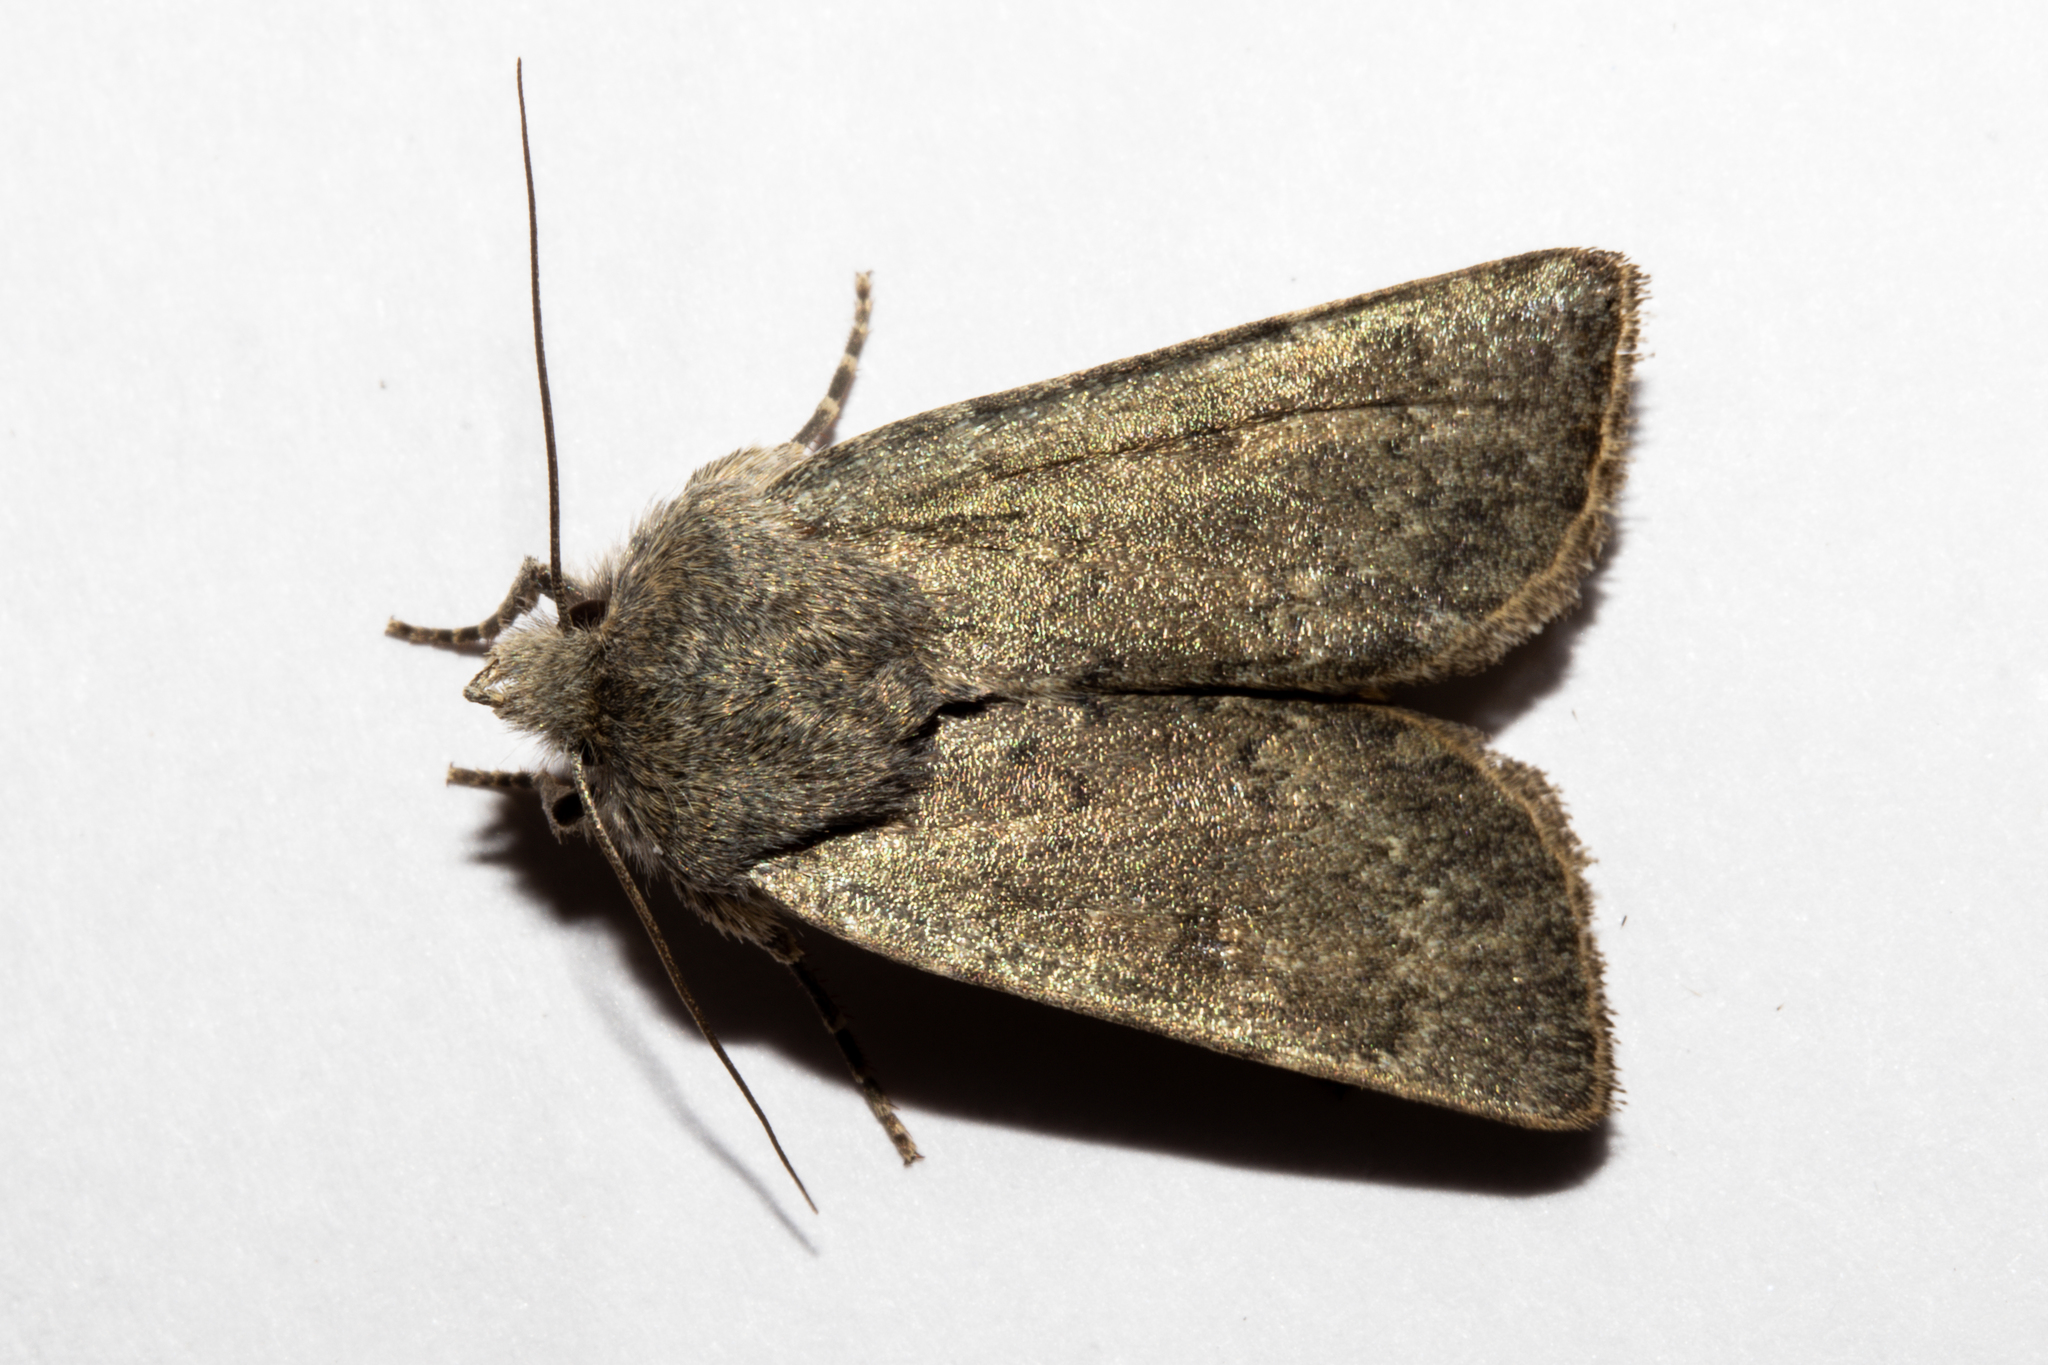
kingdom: Animalia
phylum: Arthropoda
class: Insecta
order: Lepidoptera
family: Noctuidae
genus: Physetica
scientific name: Physetica caerulea
